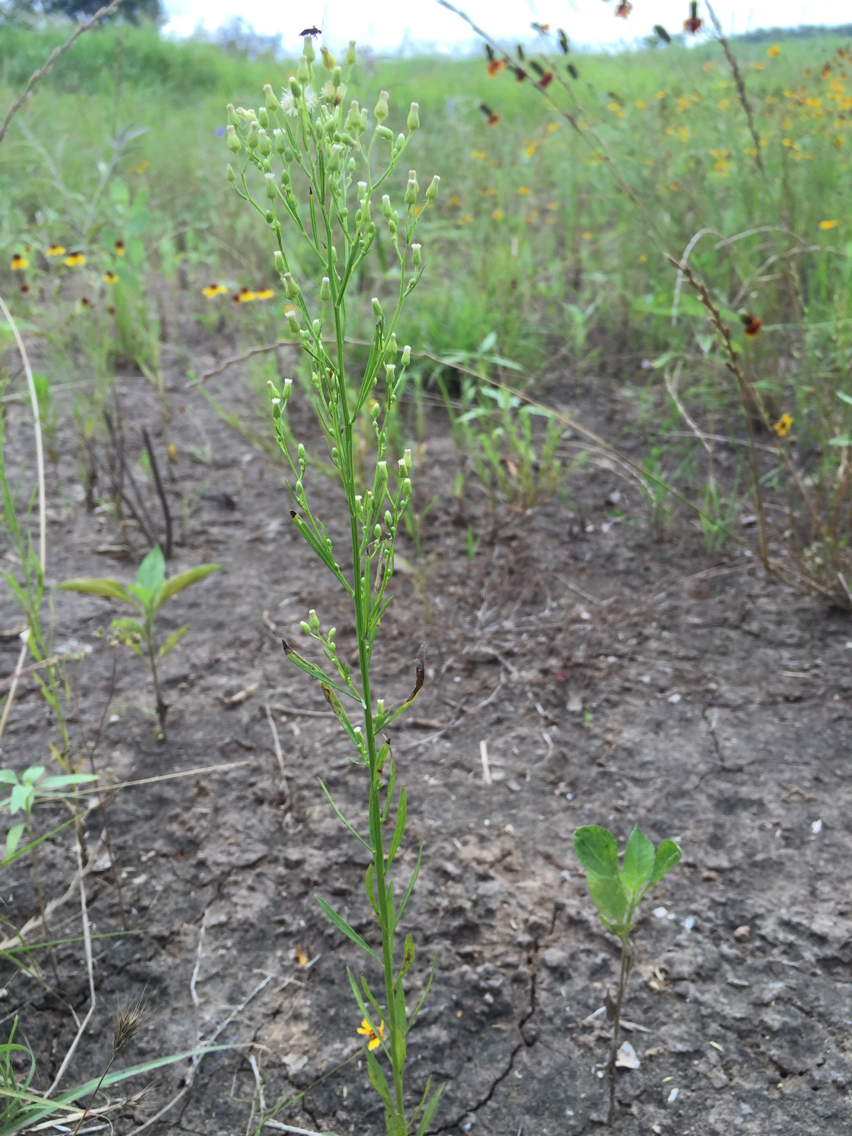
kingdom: Plantae
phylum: Tracheophyta
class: Magnoliopsida
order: Asterales
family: Asteraceae
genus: Erigeron
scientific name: Erigeron canadensis
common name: Canadian fleabane
